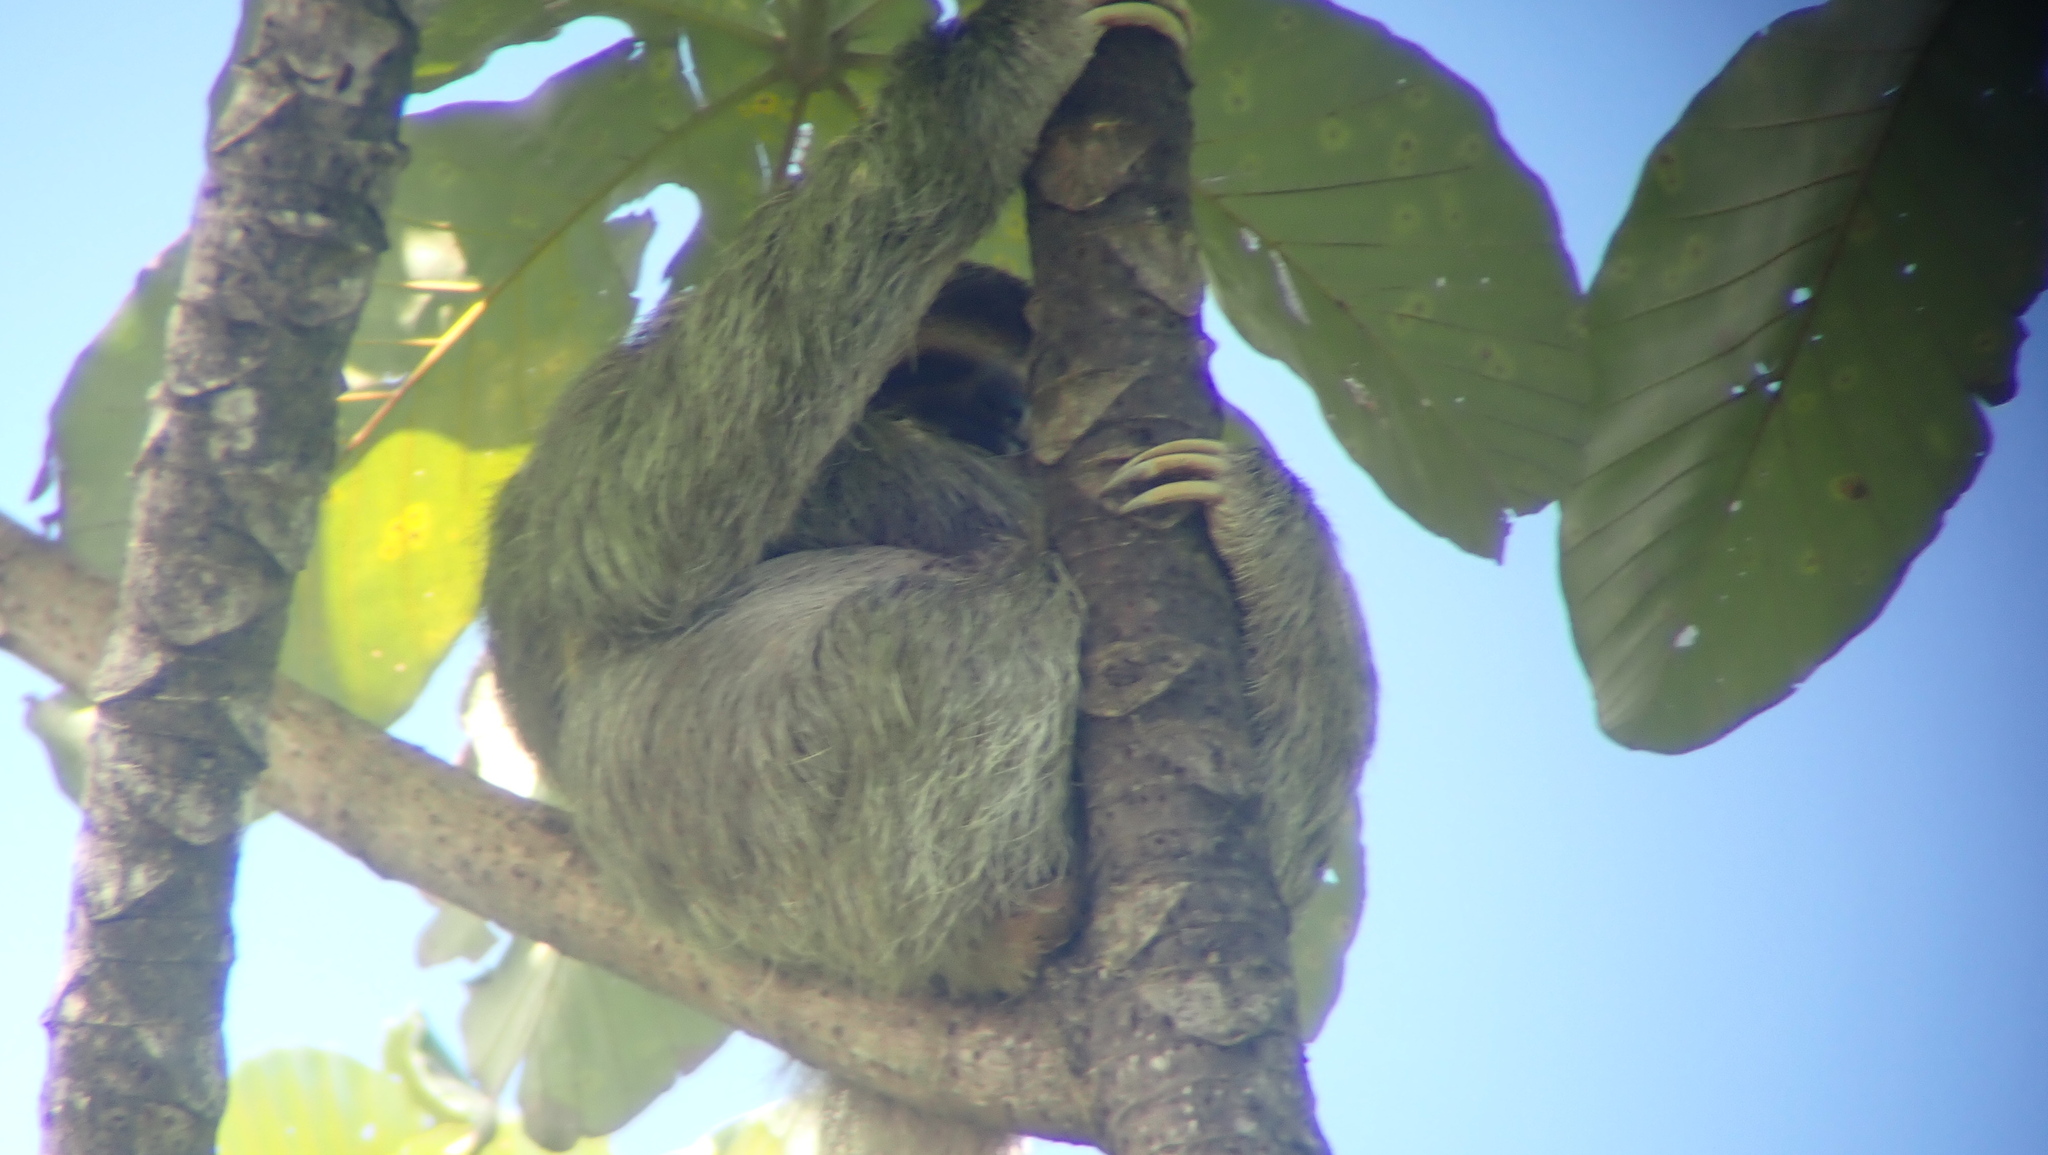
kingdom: Animalia
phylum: Chordata
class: Mammalia
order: Pilosa
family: Bradypodidae
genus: Bradypus
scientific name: Bradypus variegatus
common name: Brown-throated three-toed sloth
